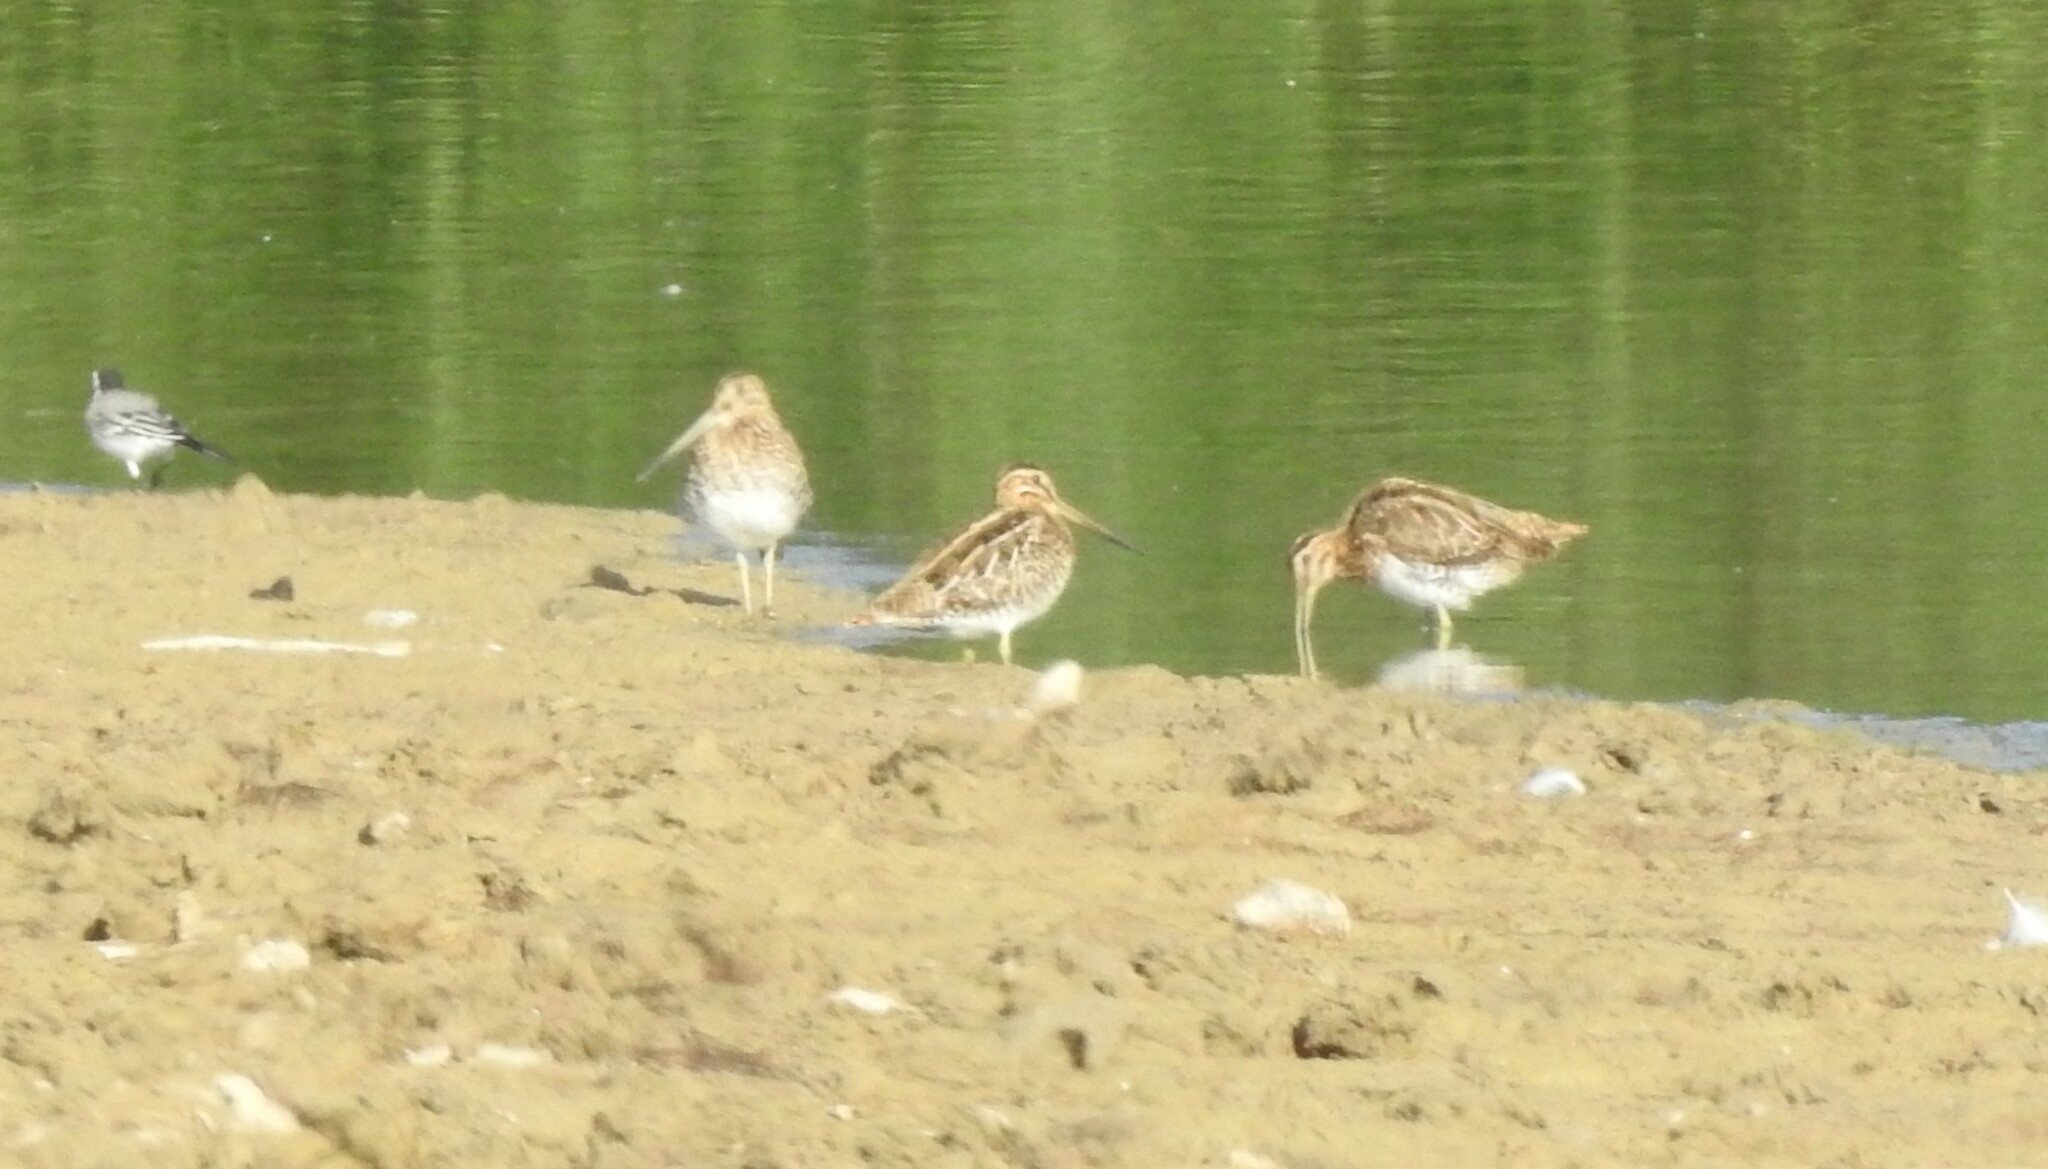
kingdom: Animalia
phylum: Chordata
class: Aves
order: Charadriiformes
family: Scolopacidae
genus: Gallinago
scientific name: Gallinago gallinago
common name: Common snipe
